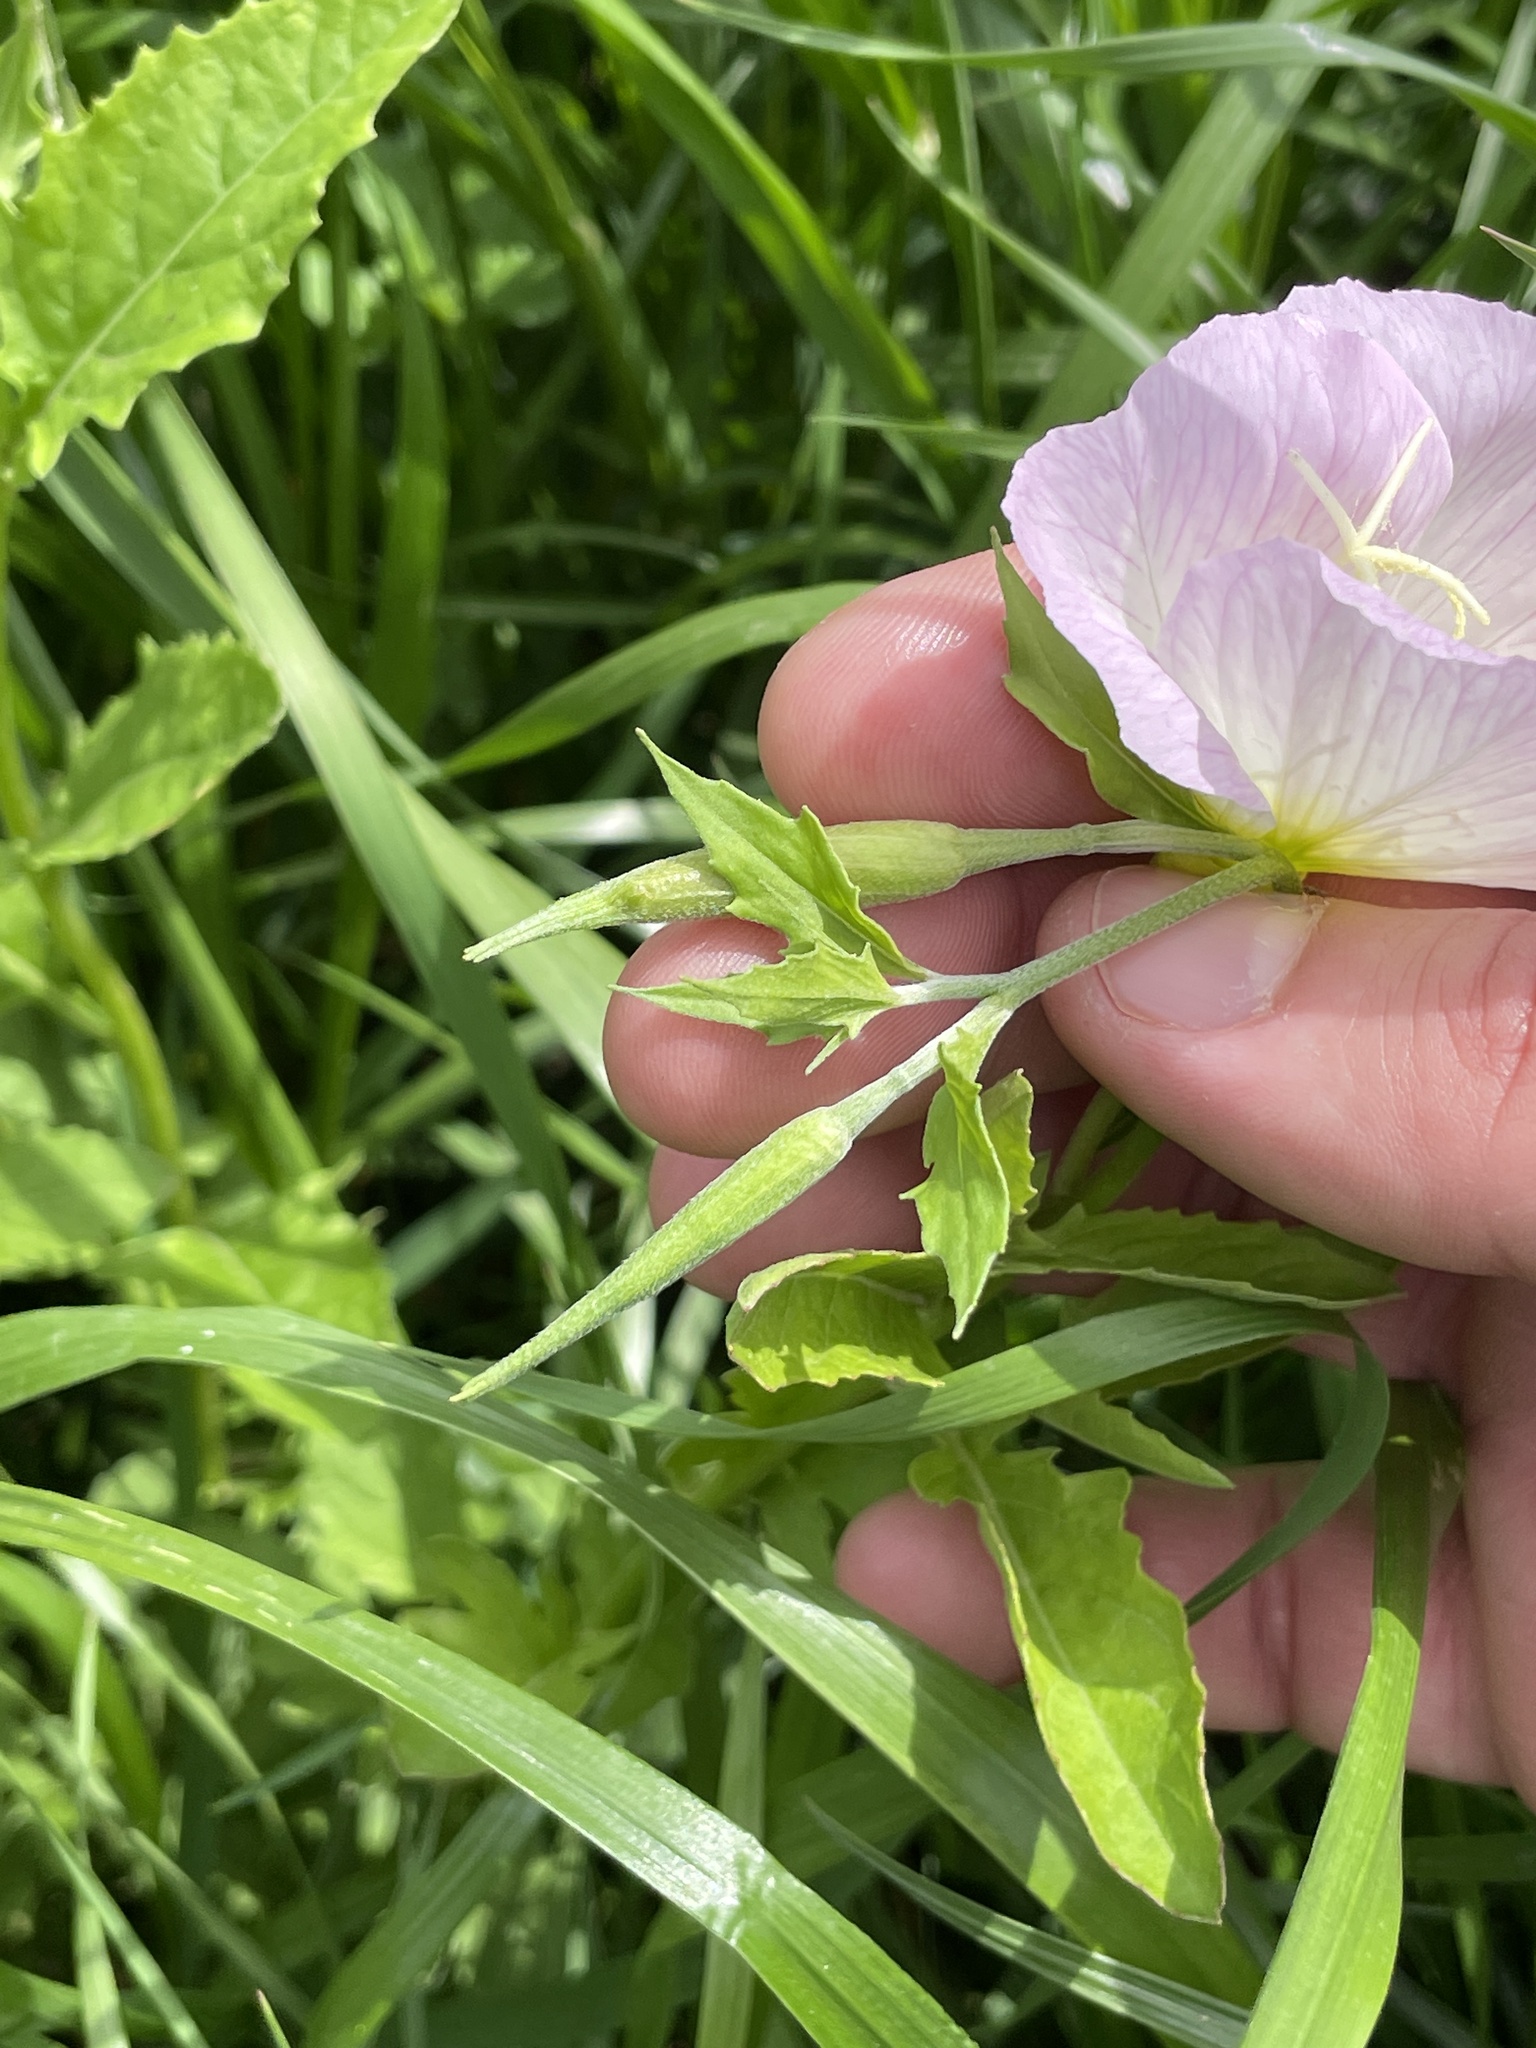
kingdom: Plantae
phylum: Tracheophyta
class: Magnoliopsida
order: Myrtales
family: Onagraceae
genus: Oenothera
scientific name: Oenothera speciosa
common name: White evening-primrose
